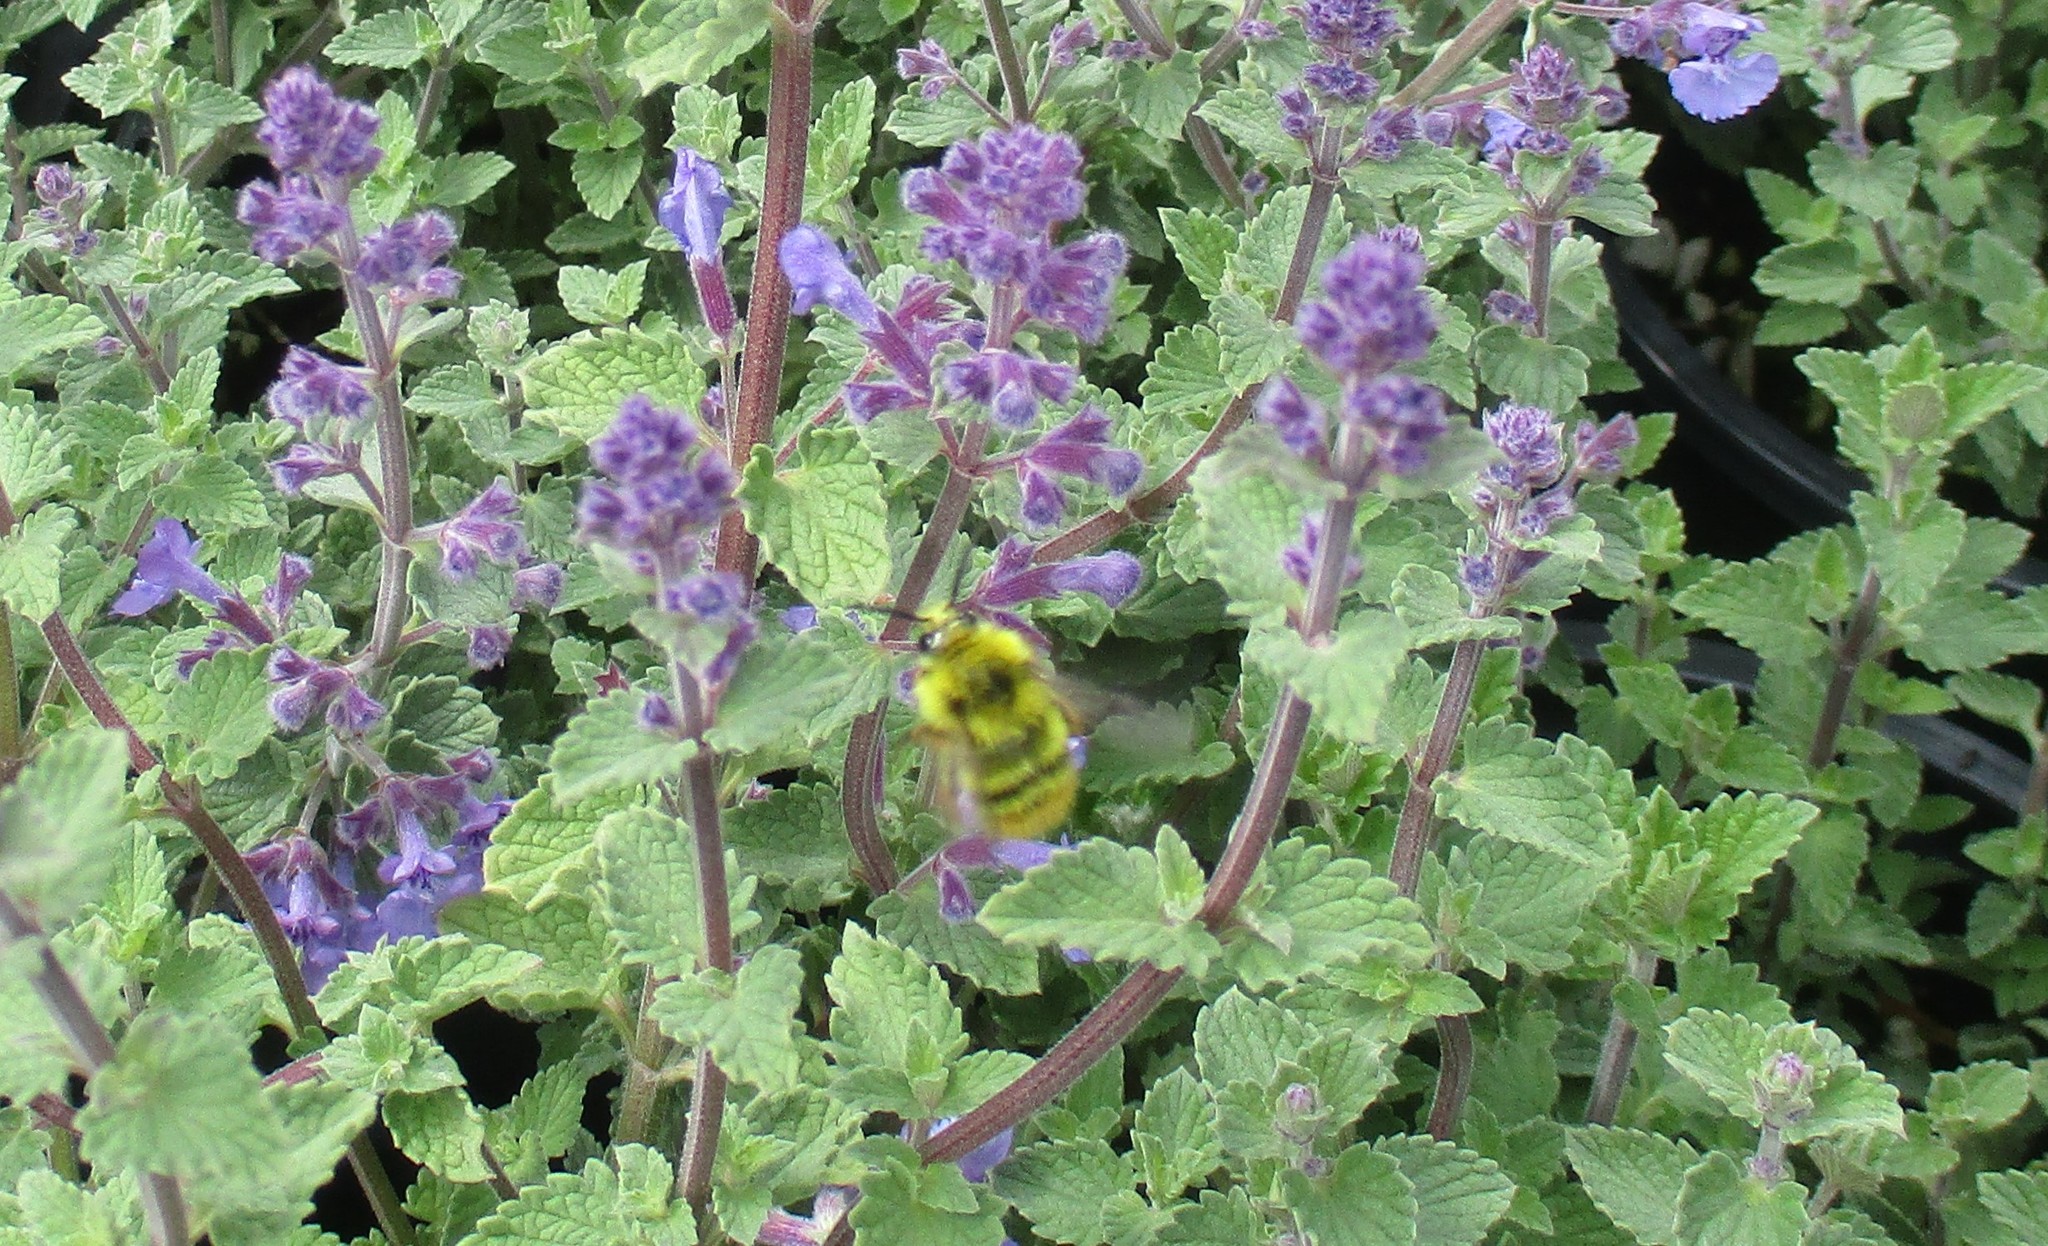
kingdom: Animalia
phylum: Arthropoda
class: Insecta
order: Hymenoptera
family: Apidae
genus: Bombus
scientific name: Bombus mixtus
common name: Fuzzy-horned bumble bee
